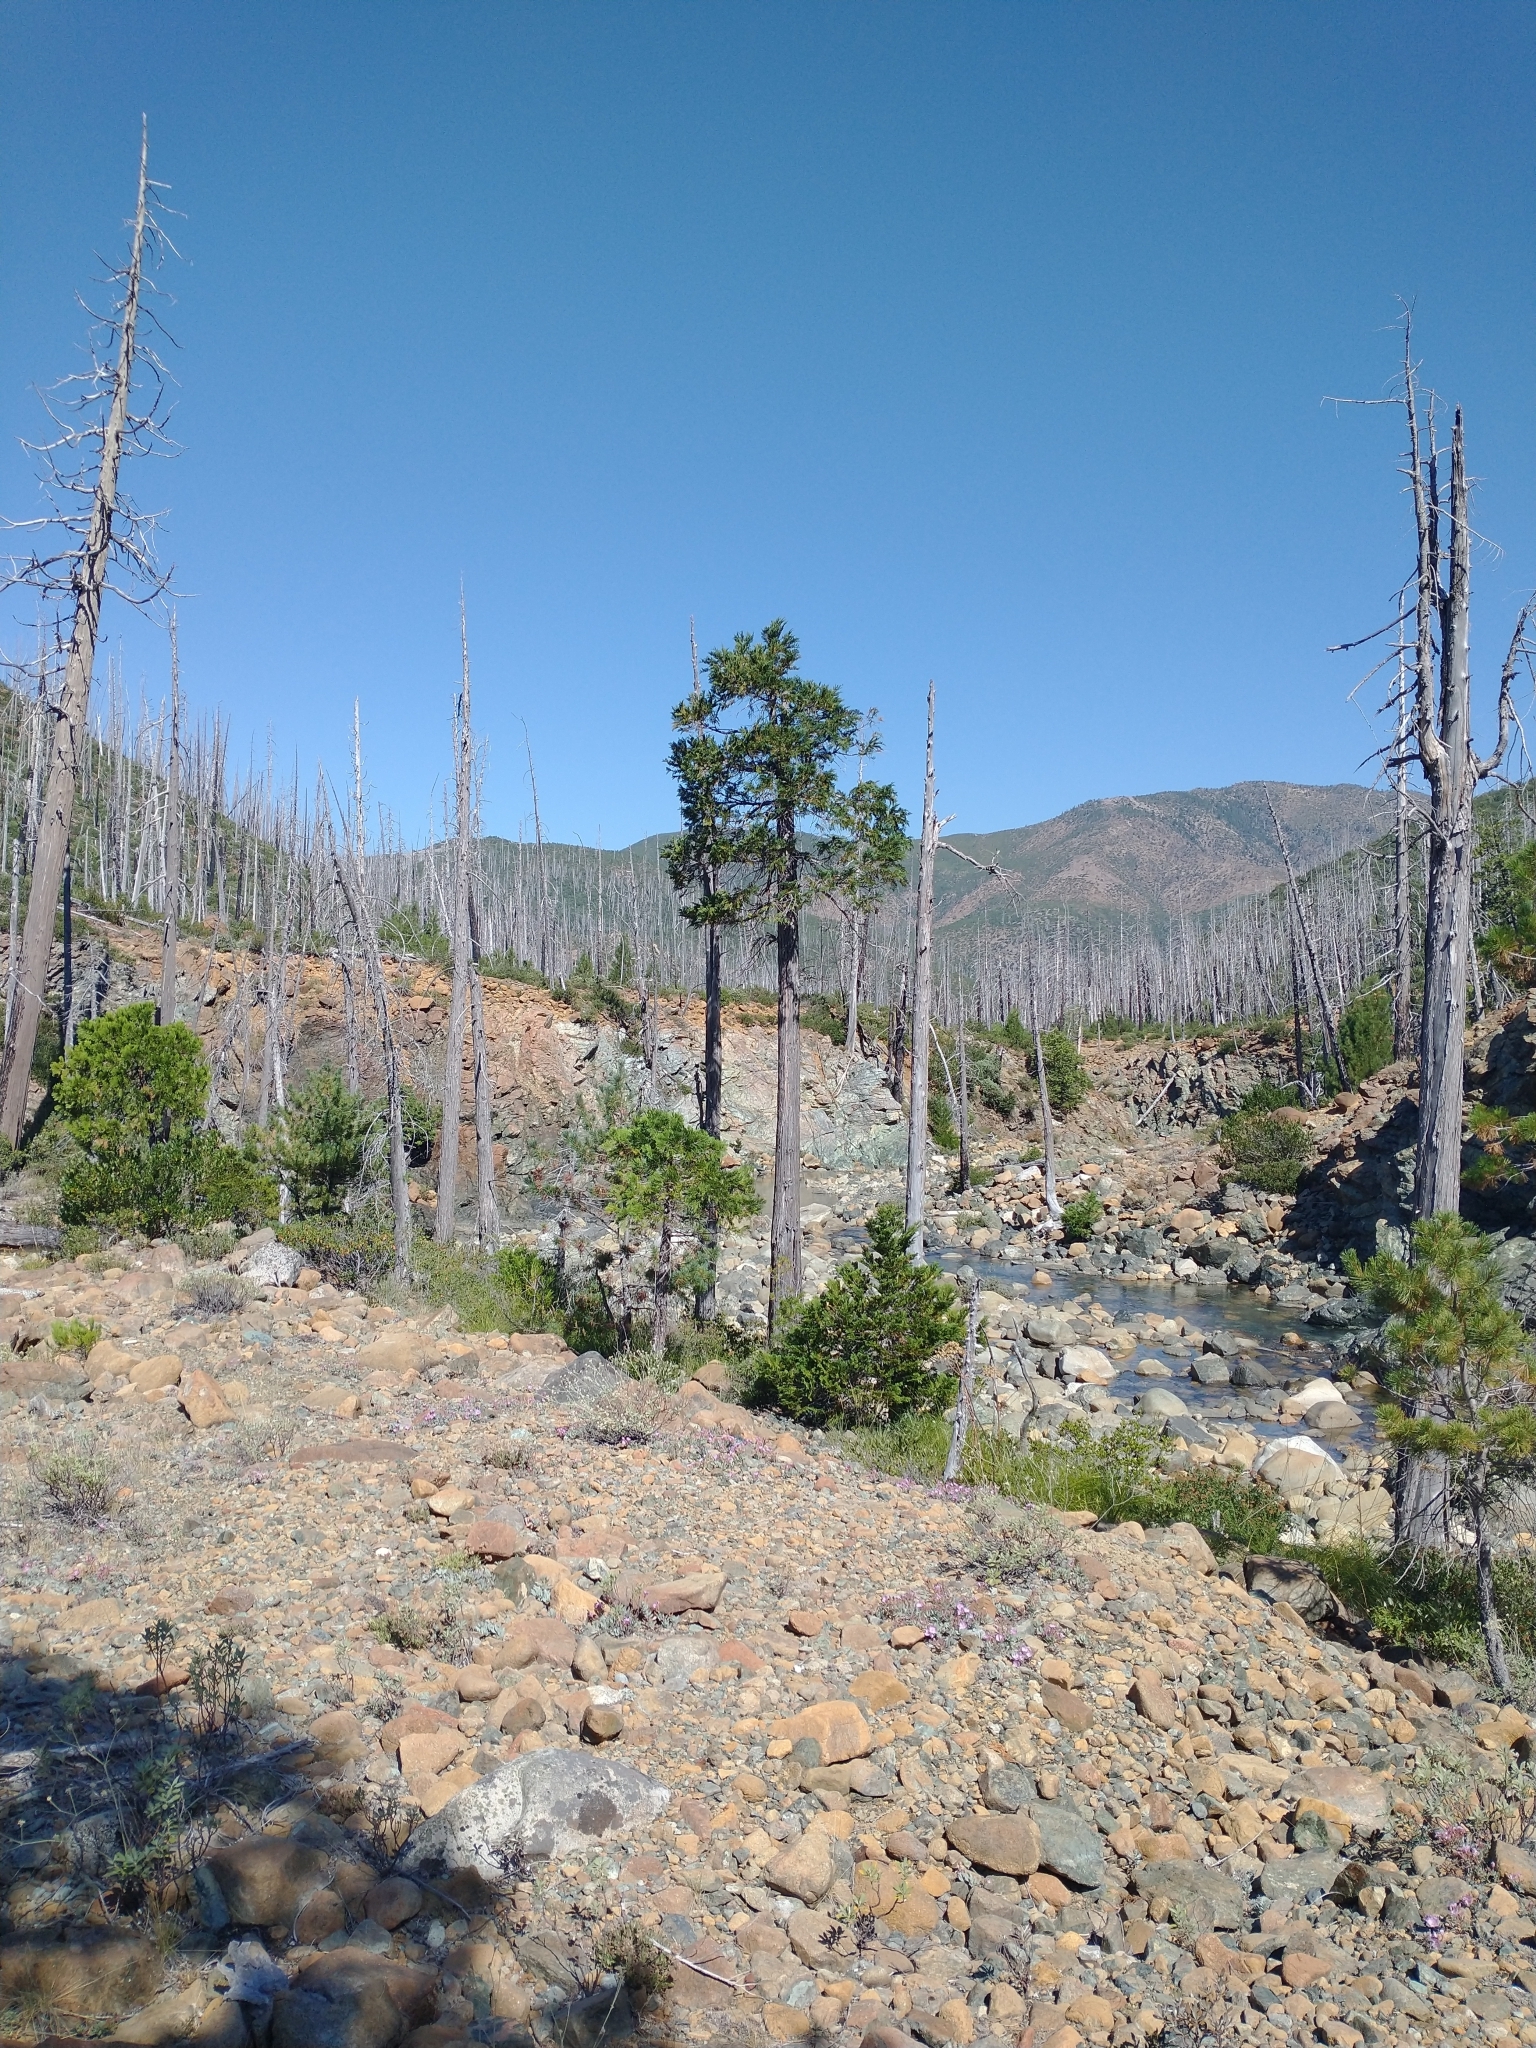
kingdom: Plantae
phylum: Tracheophyta
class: Pinopsida
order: Pinales
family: Cupressaceae
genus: Chamaecyparis
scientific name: Chamaecyparis lawsoniana
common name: Lawson's cypress
